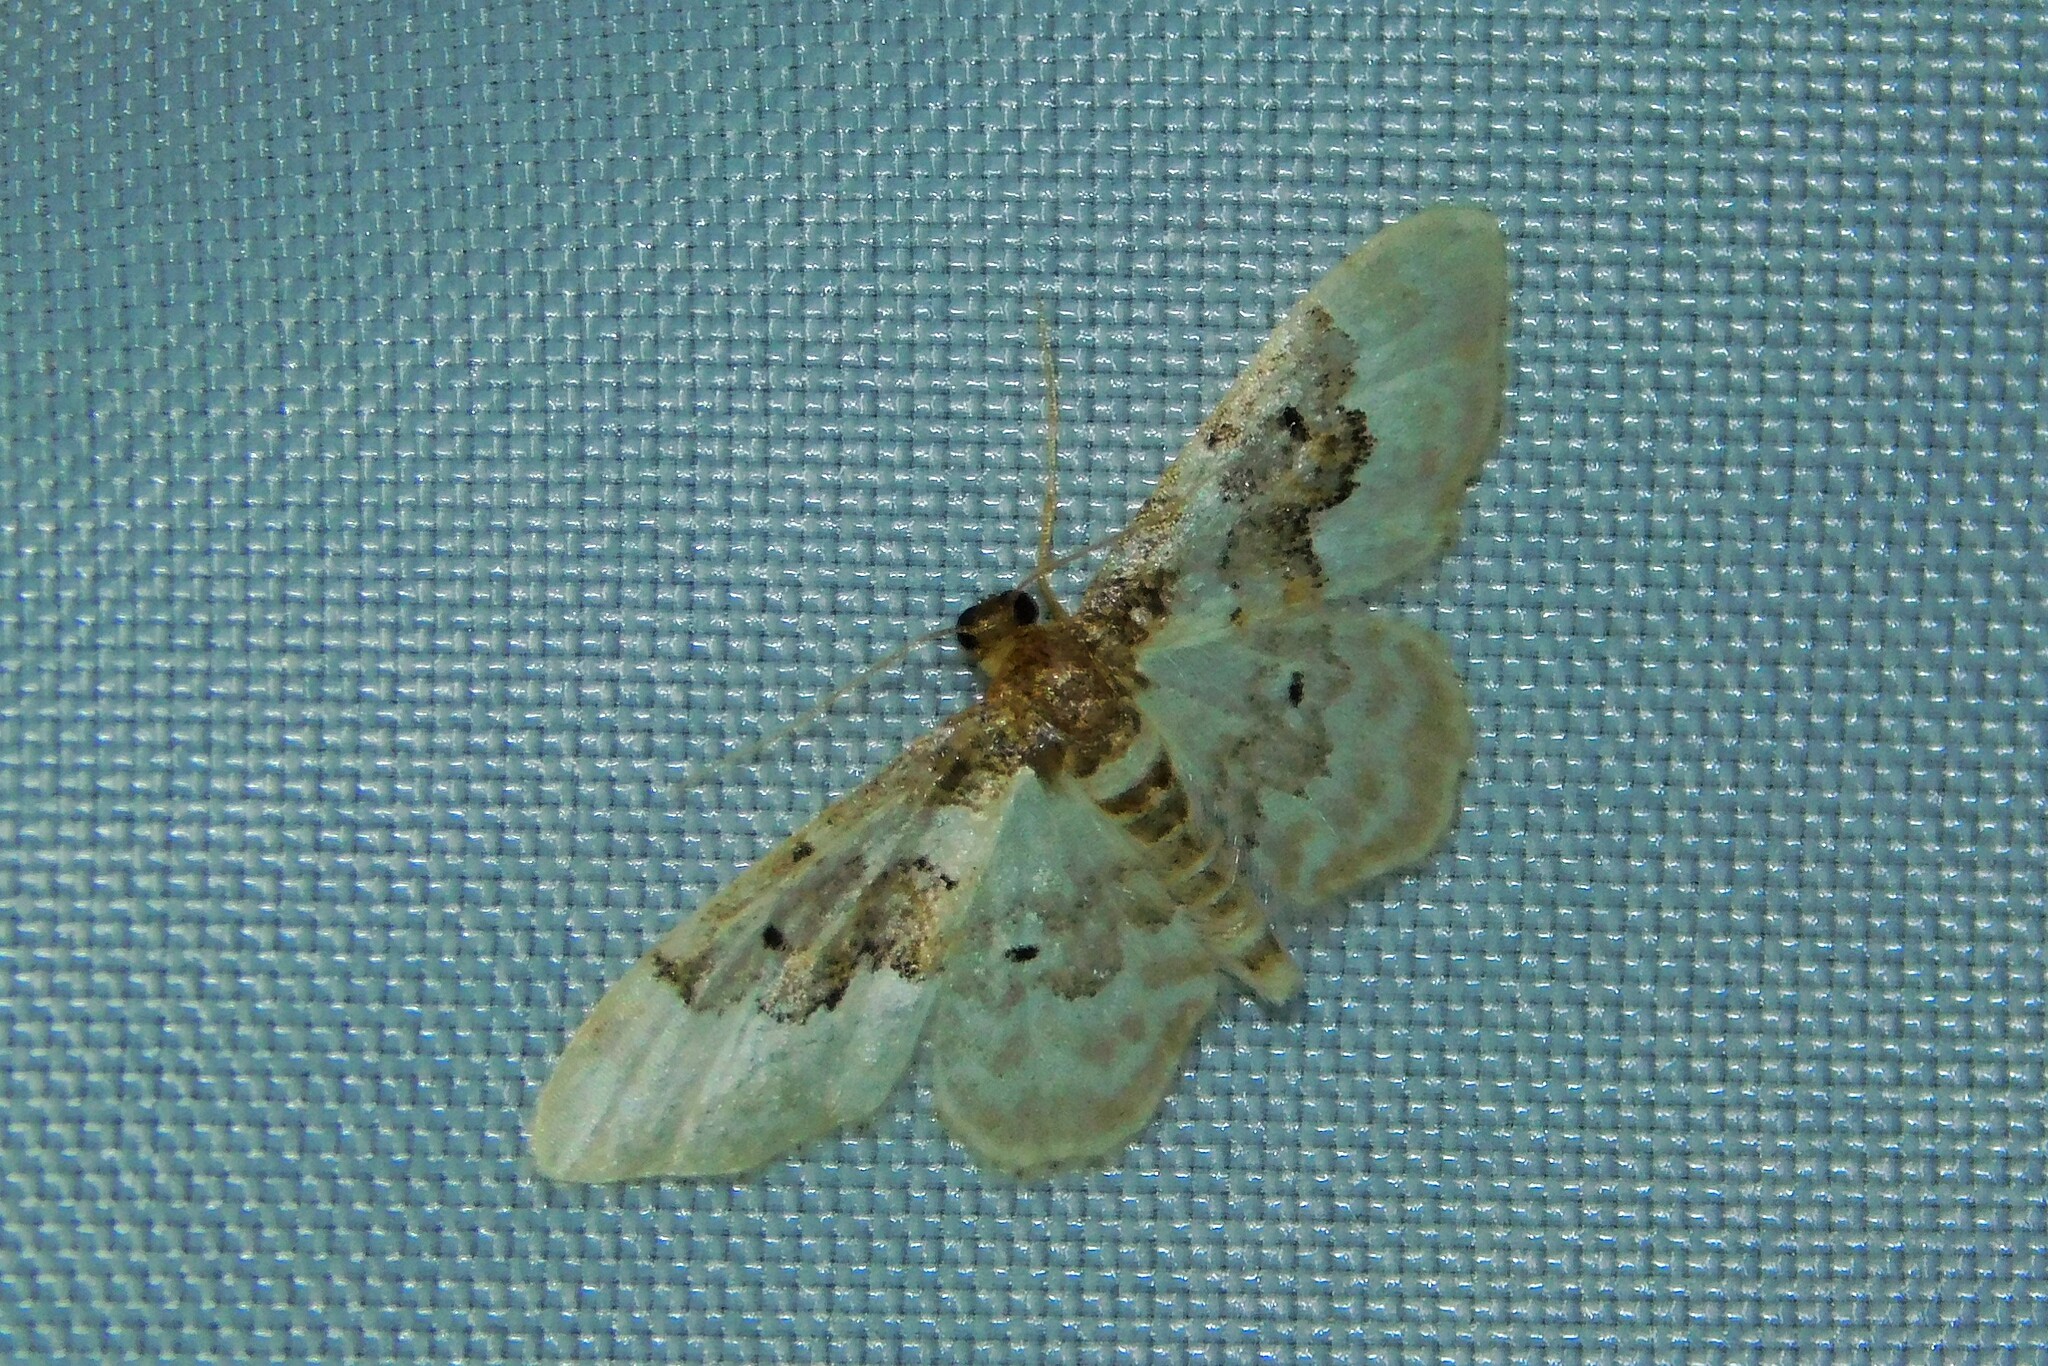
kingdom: Animalia
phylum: Arthropoda
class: Insecta
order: Lepidoptera
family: Geometridae
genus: Idaea
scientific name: Idaea rusticata
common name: Least carpet
